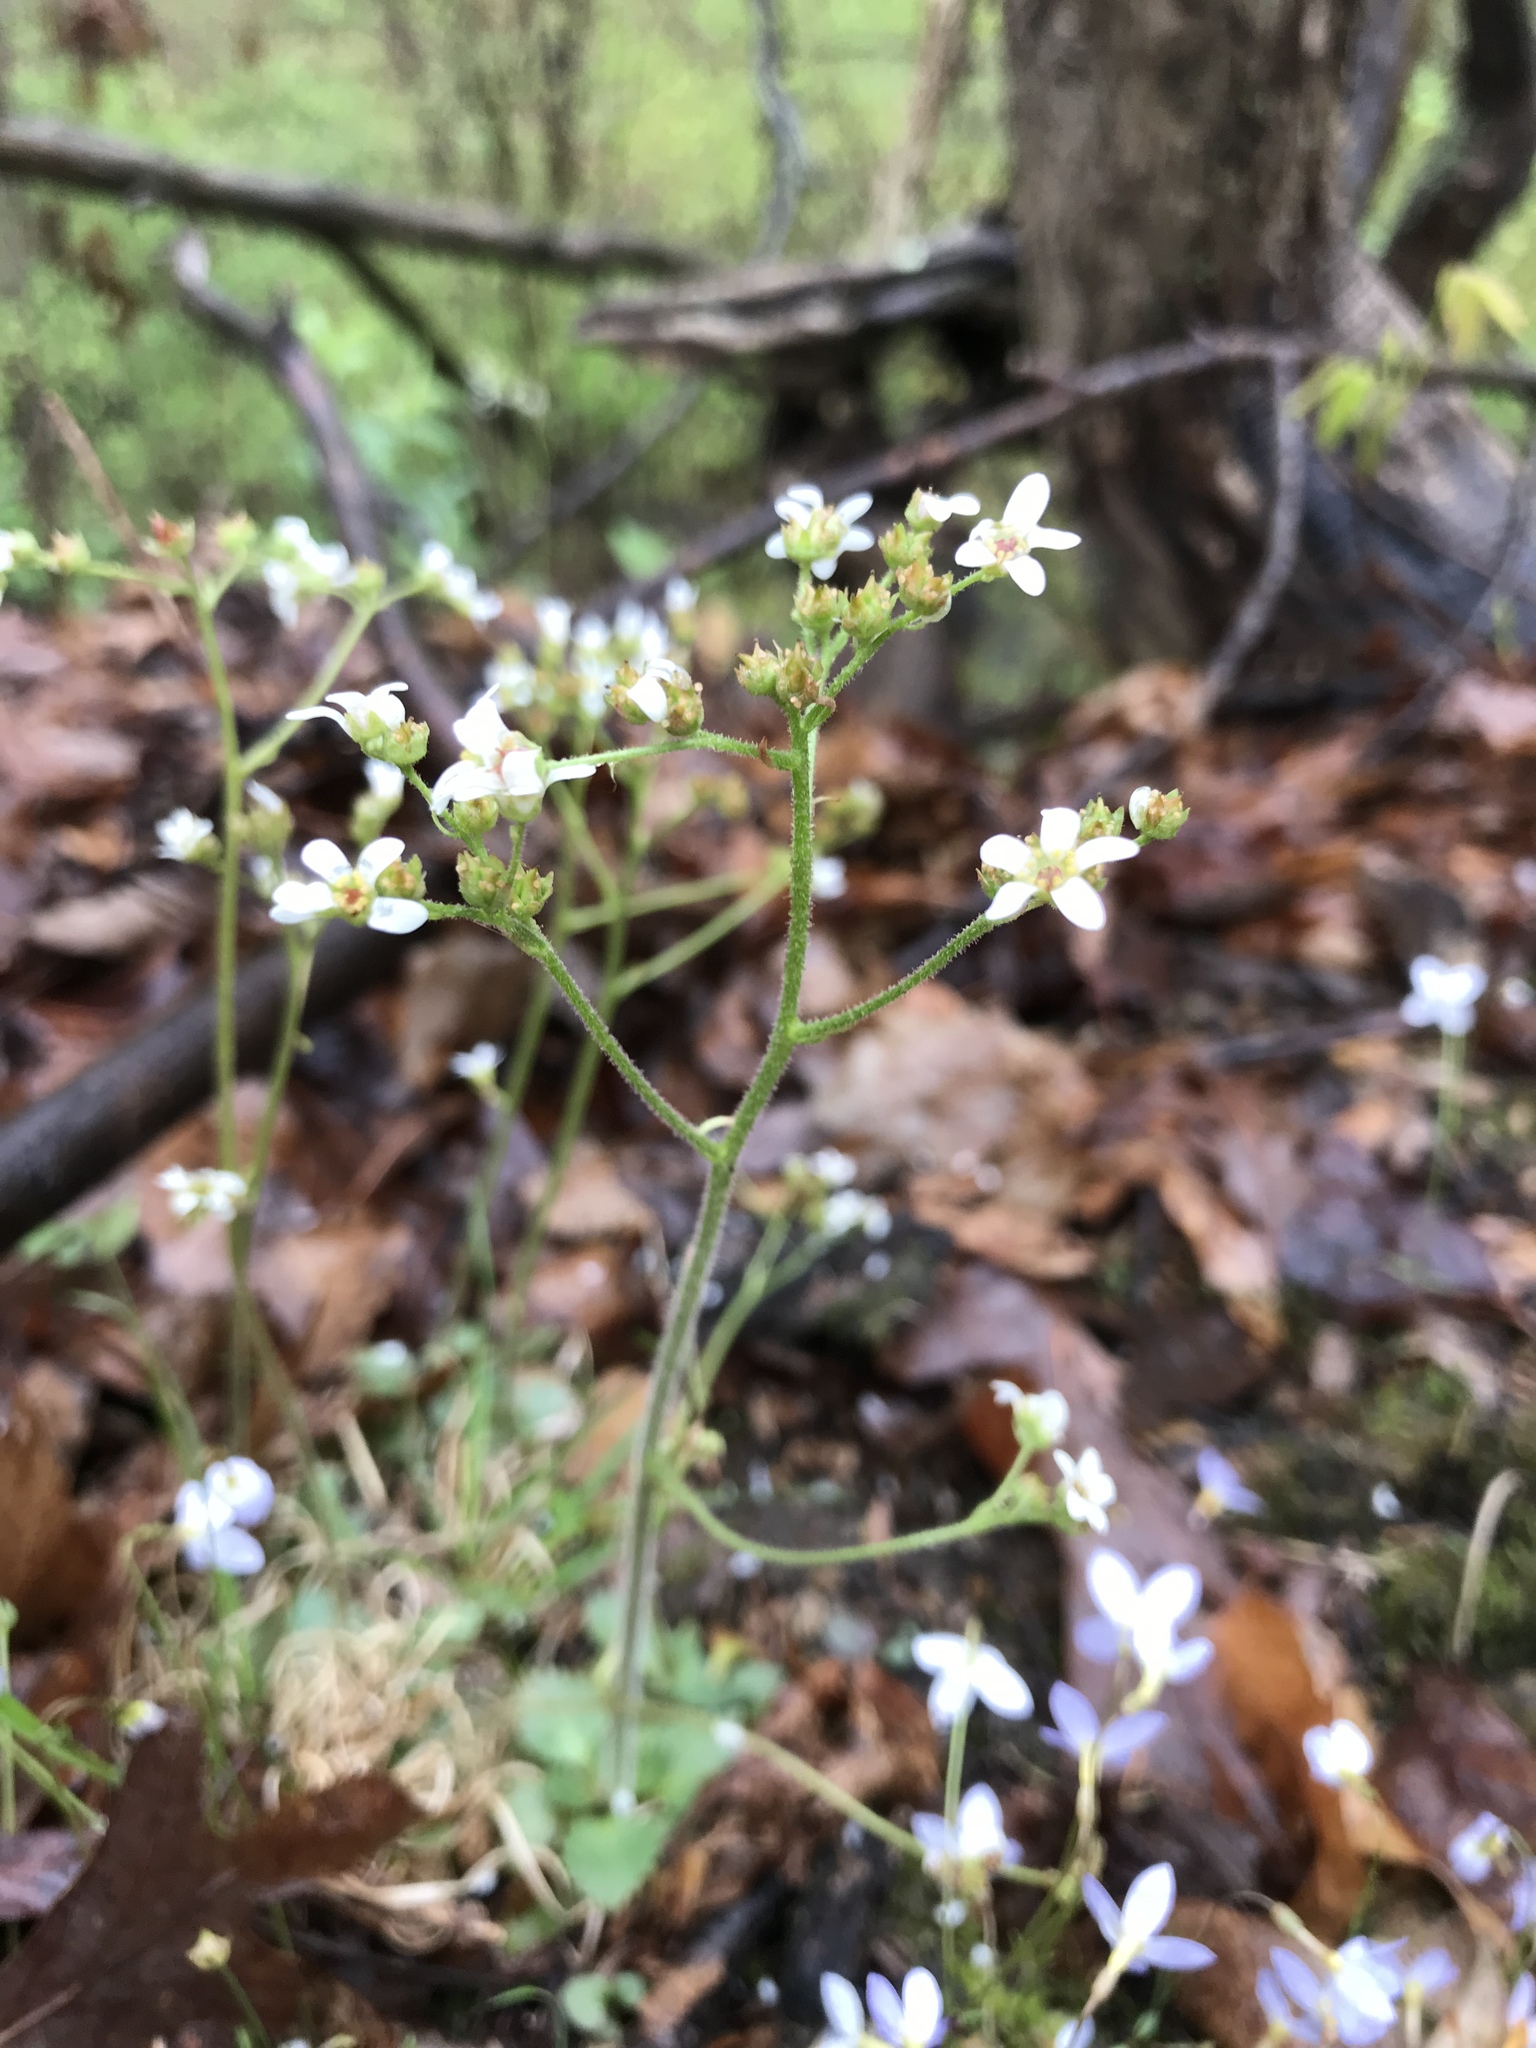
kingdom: Plantae
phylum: Tracheophyta
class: Magnoliopsida
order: Saxifragales
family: Saxifragaceae
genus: Micranthes
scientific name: Micranthes virginiensis
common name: Early saxifrage
